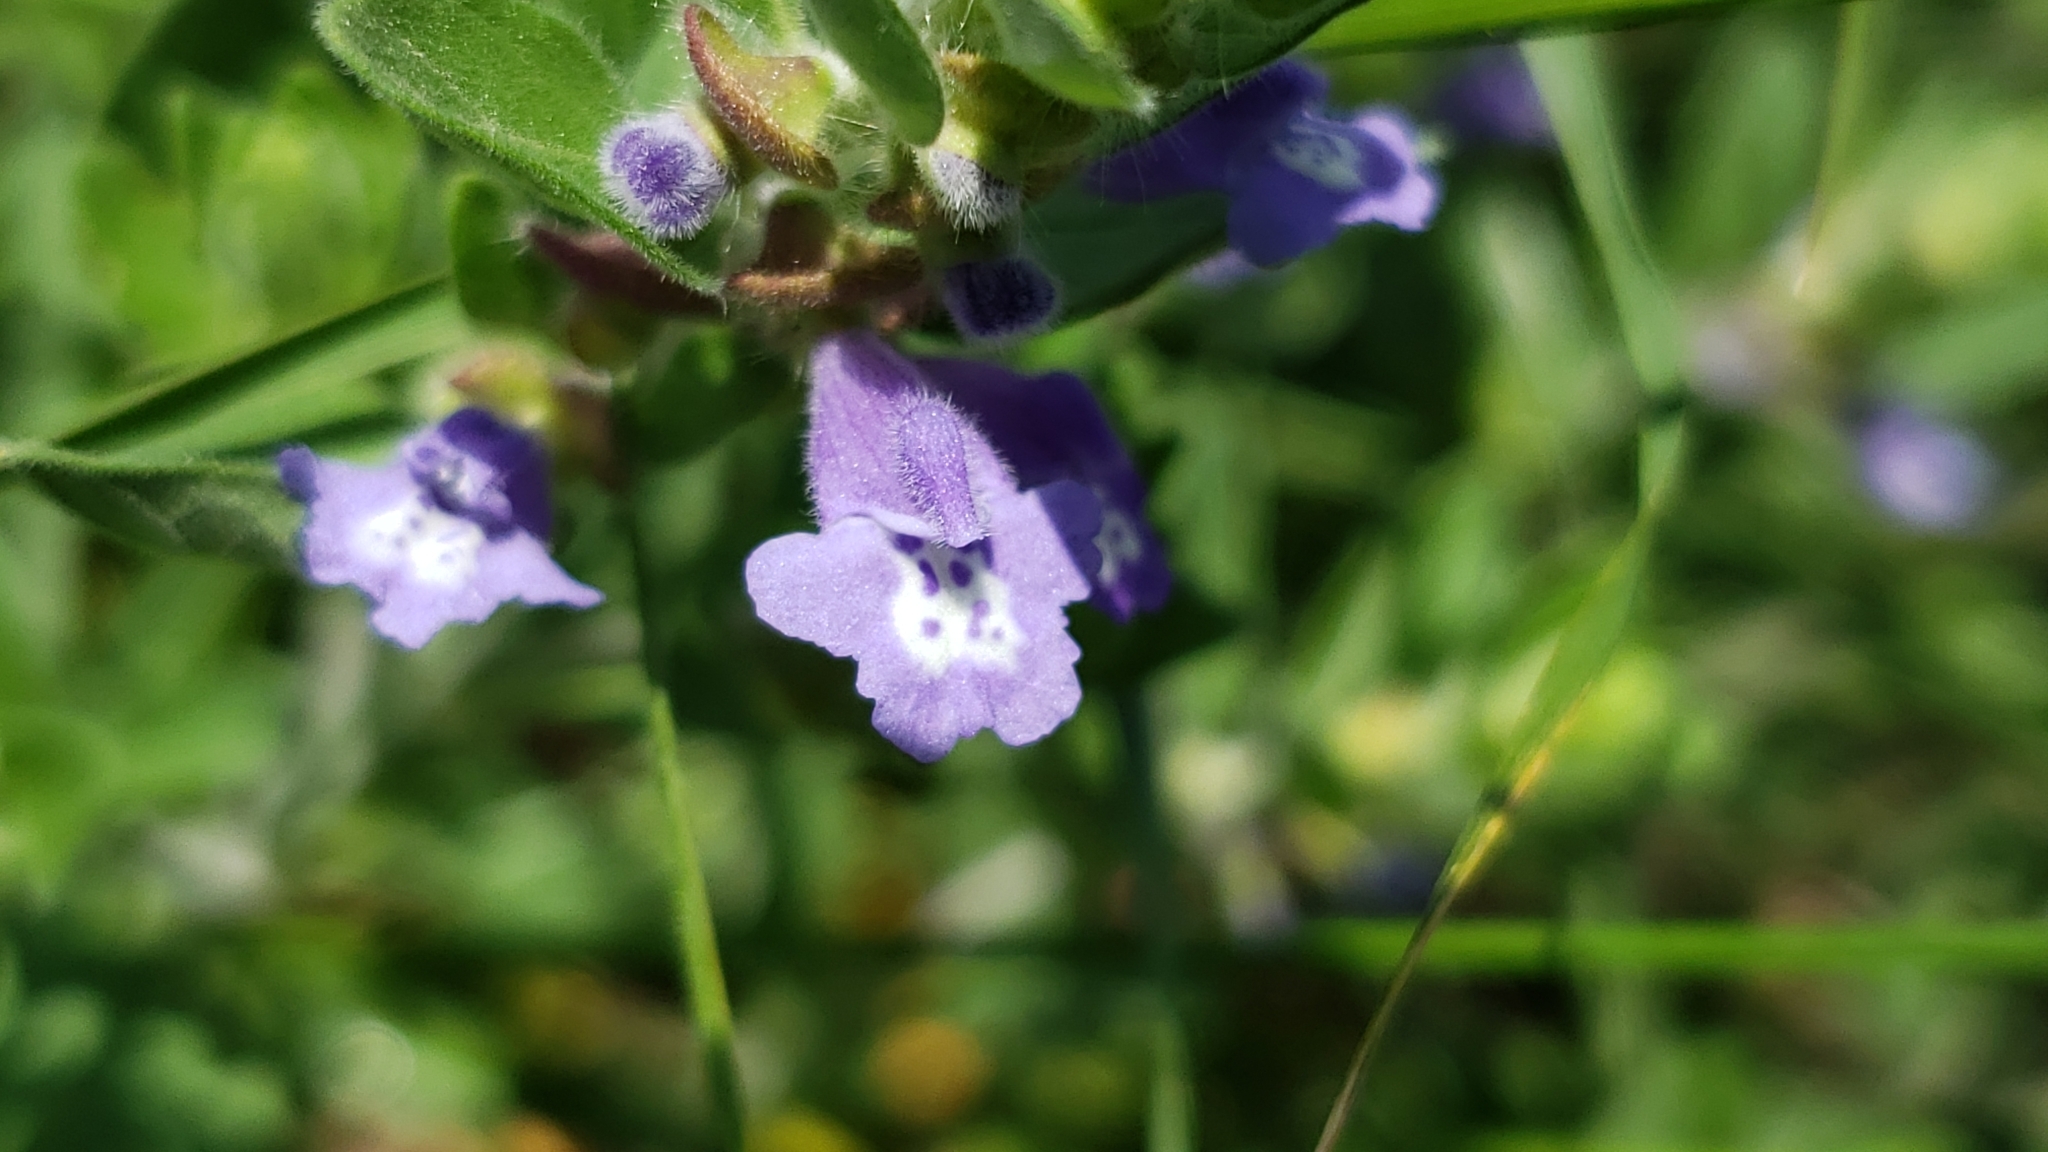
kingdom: Plantae
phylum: Tracheophyta
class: Magnoliopsida
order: Lamiales
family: Lamiaceae
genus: Scutellaria
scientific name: Scutellaria drummondii
